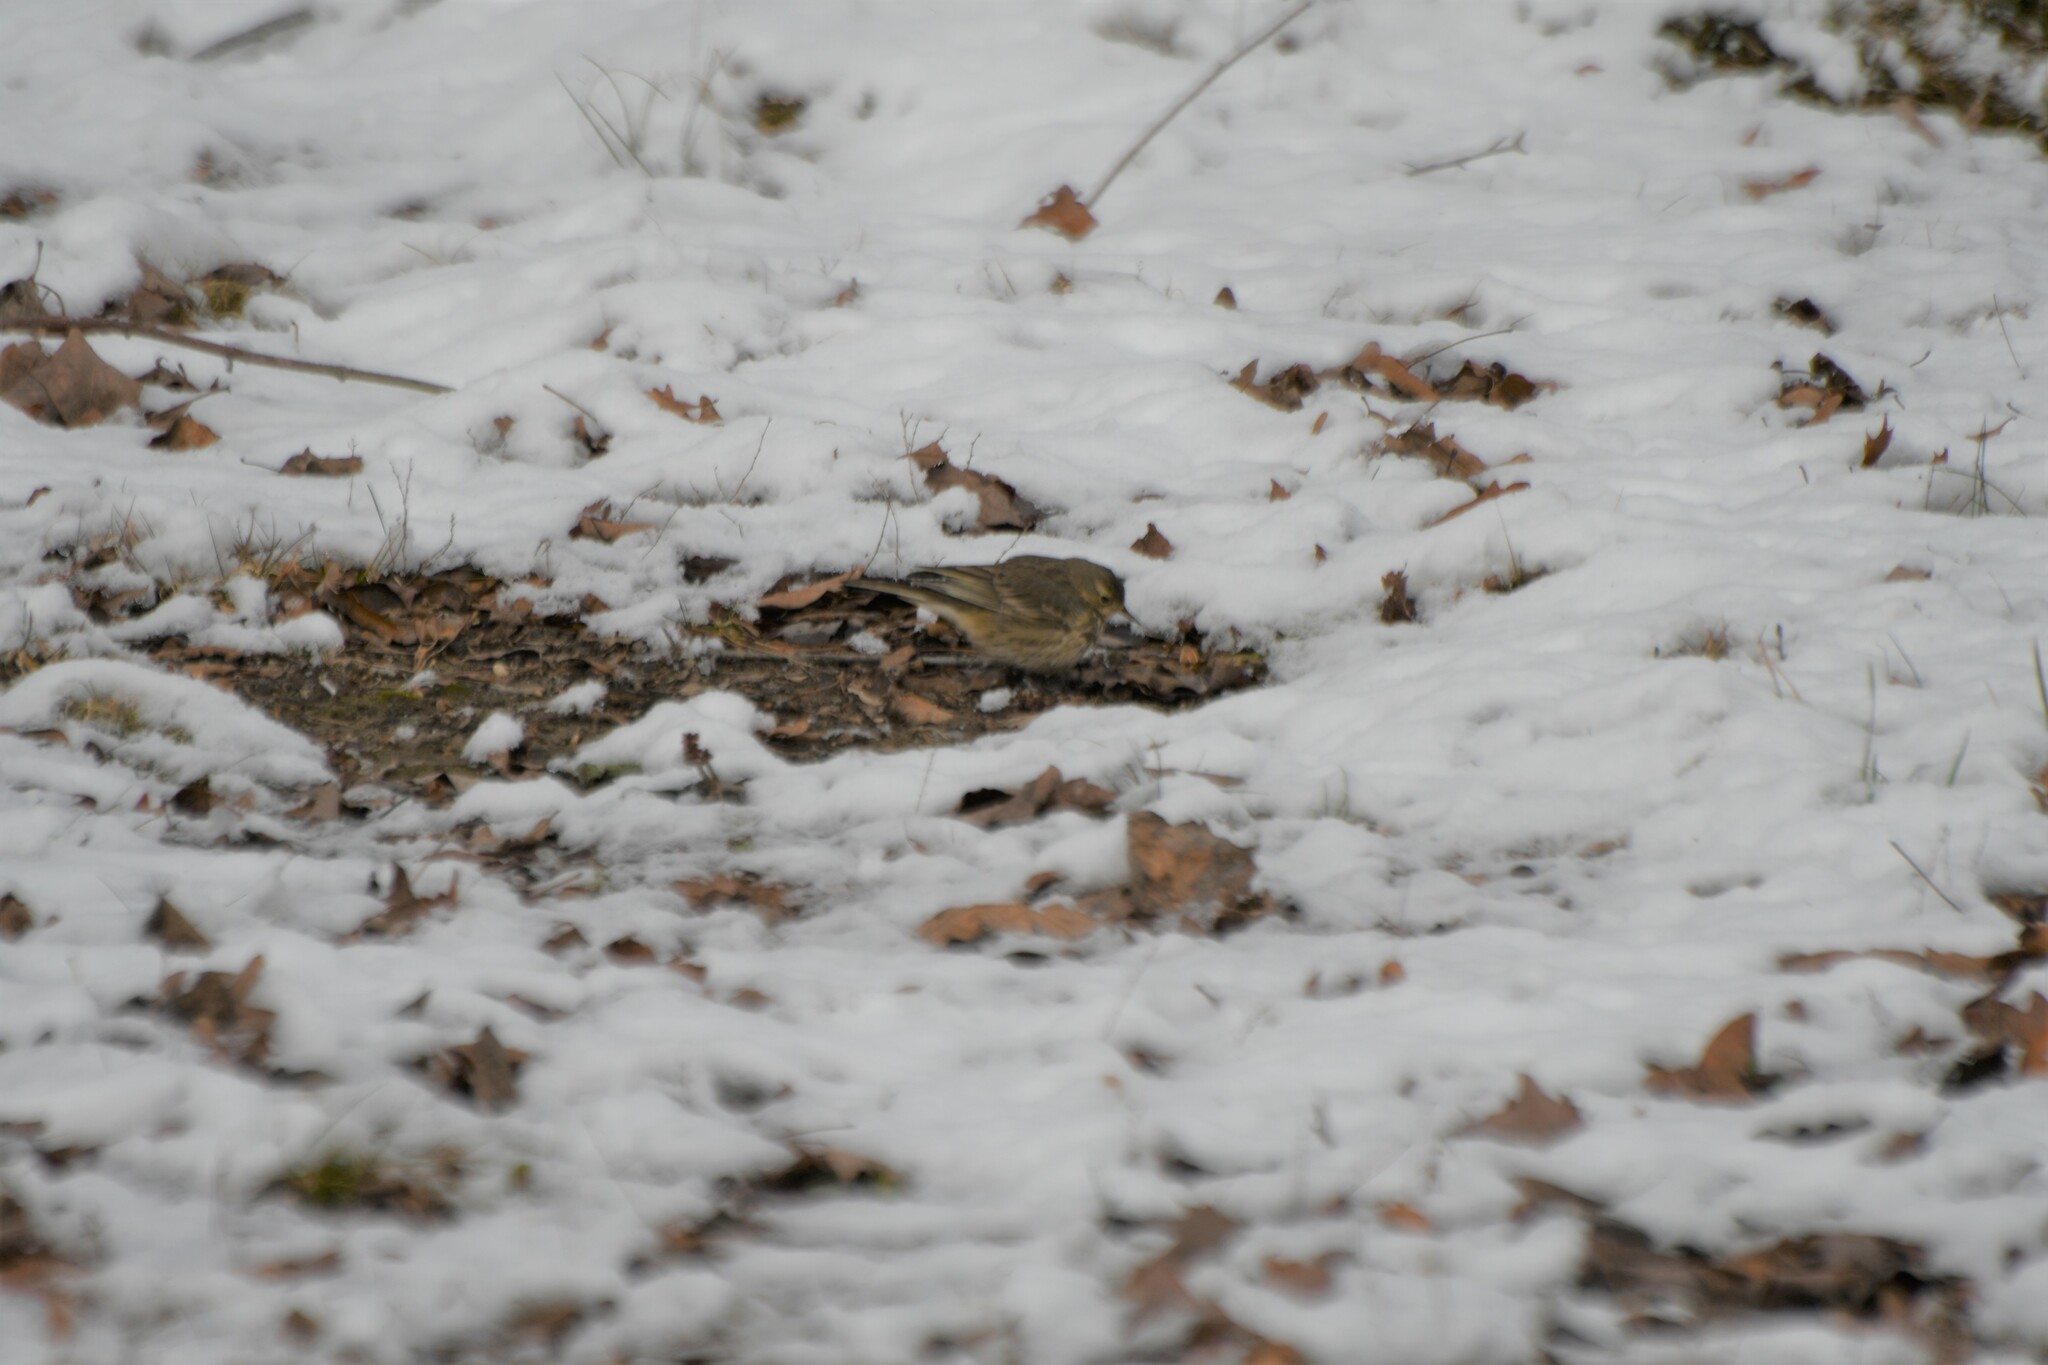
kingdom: Animalia
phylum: Chordata
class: Aves
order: Passeriformes
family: Motacillidae
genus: Anthus
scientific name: Anthus rubescens
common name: Buff-bellied pipit
